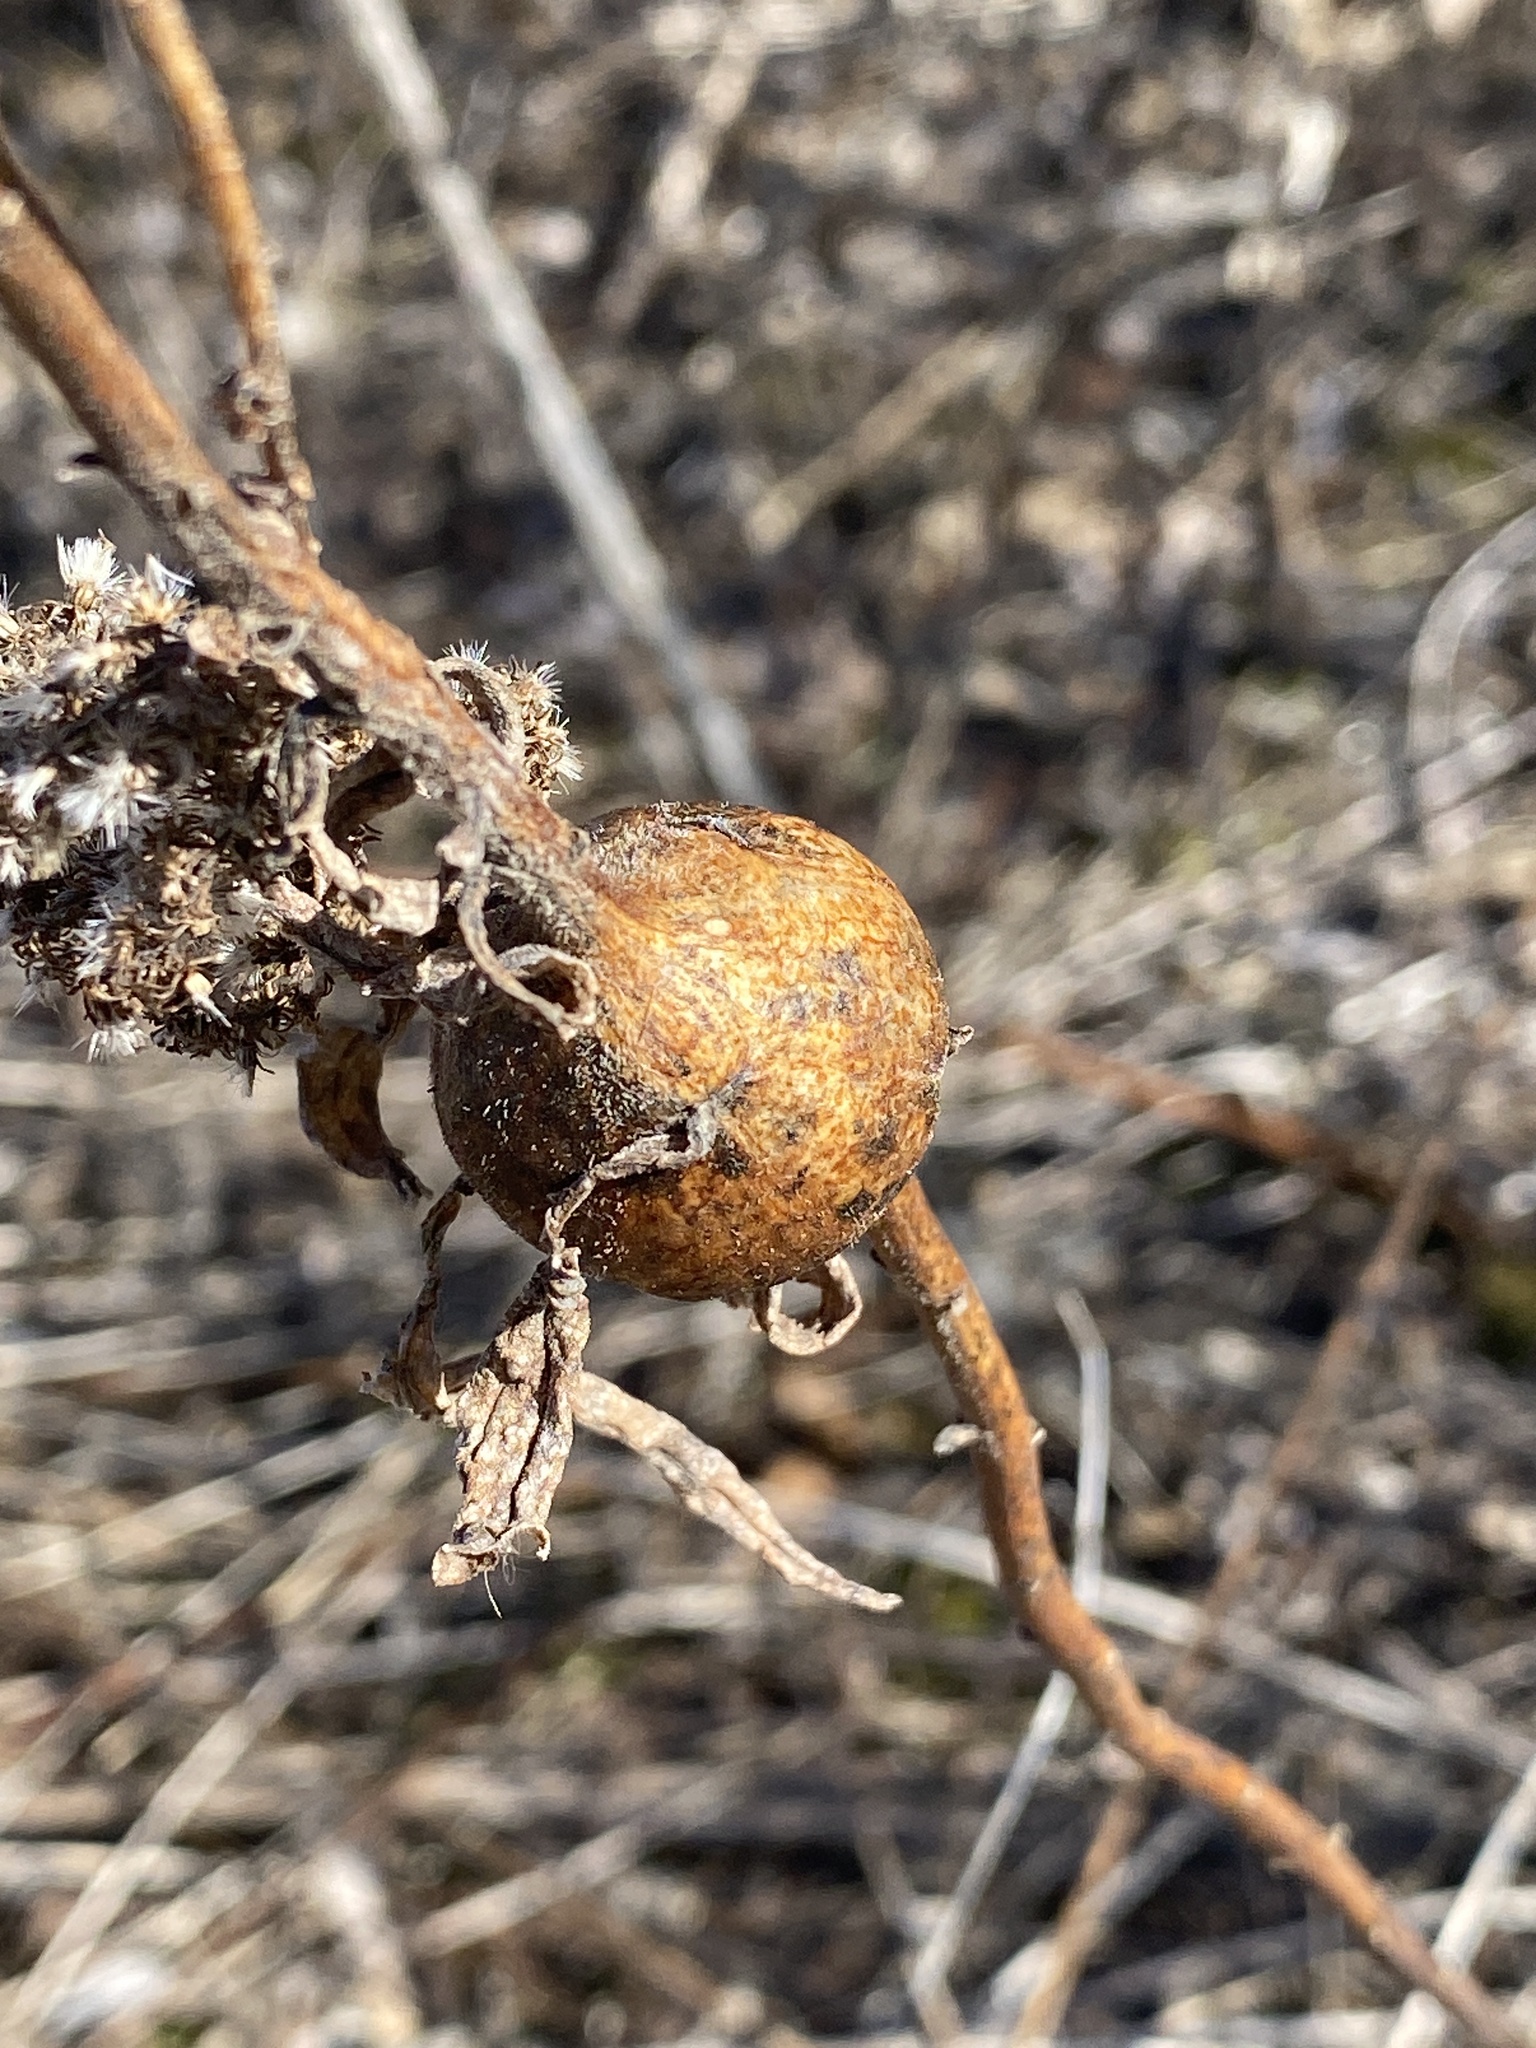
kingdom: Animalia
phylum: Arthropoda
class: Insecta
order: Diptera
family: Tephritidae
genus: Eurosta
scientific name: Eurosta solidaginis
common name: Goldenrod gall fly
